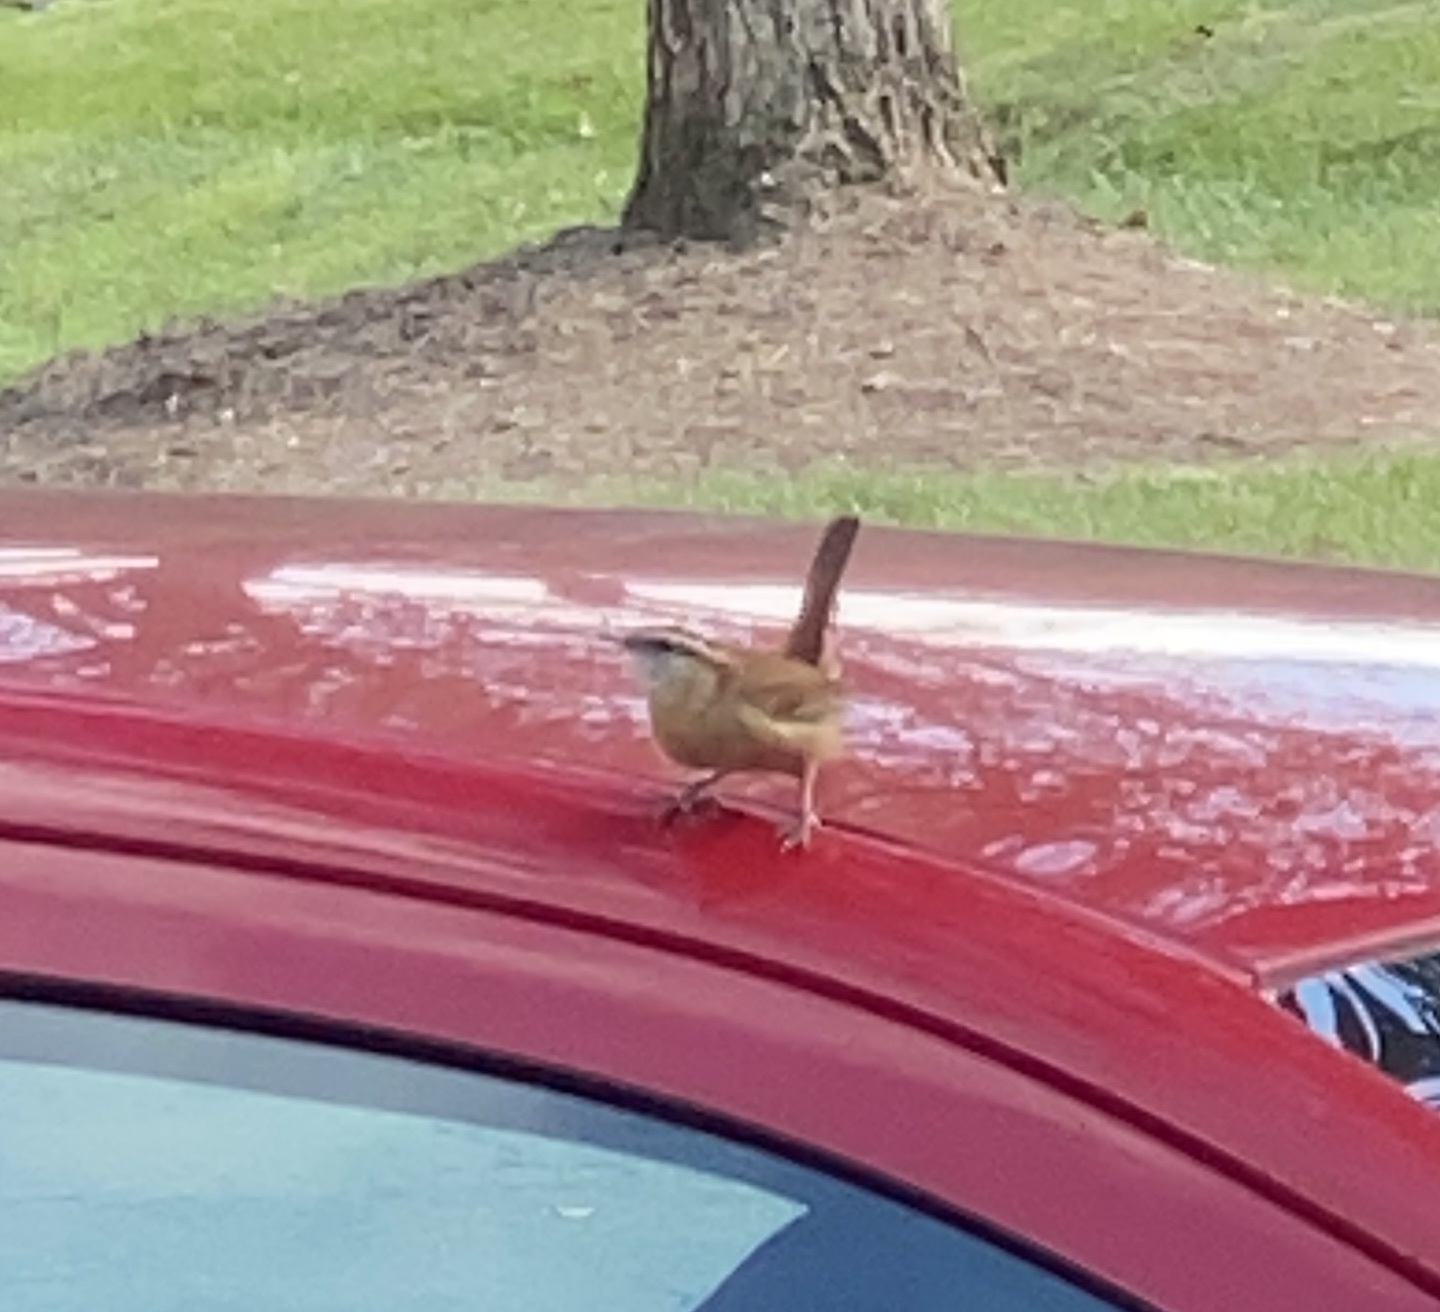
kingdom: Animalia
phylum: Chordata
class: Aves
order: Passeriformes
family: Troglodytidae
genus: Thryothorus
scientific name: Thryothorus ludovicianus
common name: Carolina wren
